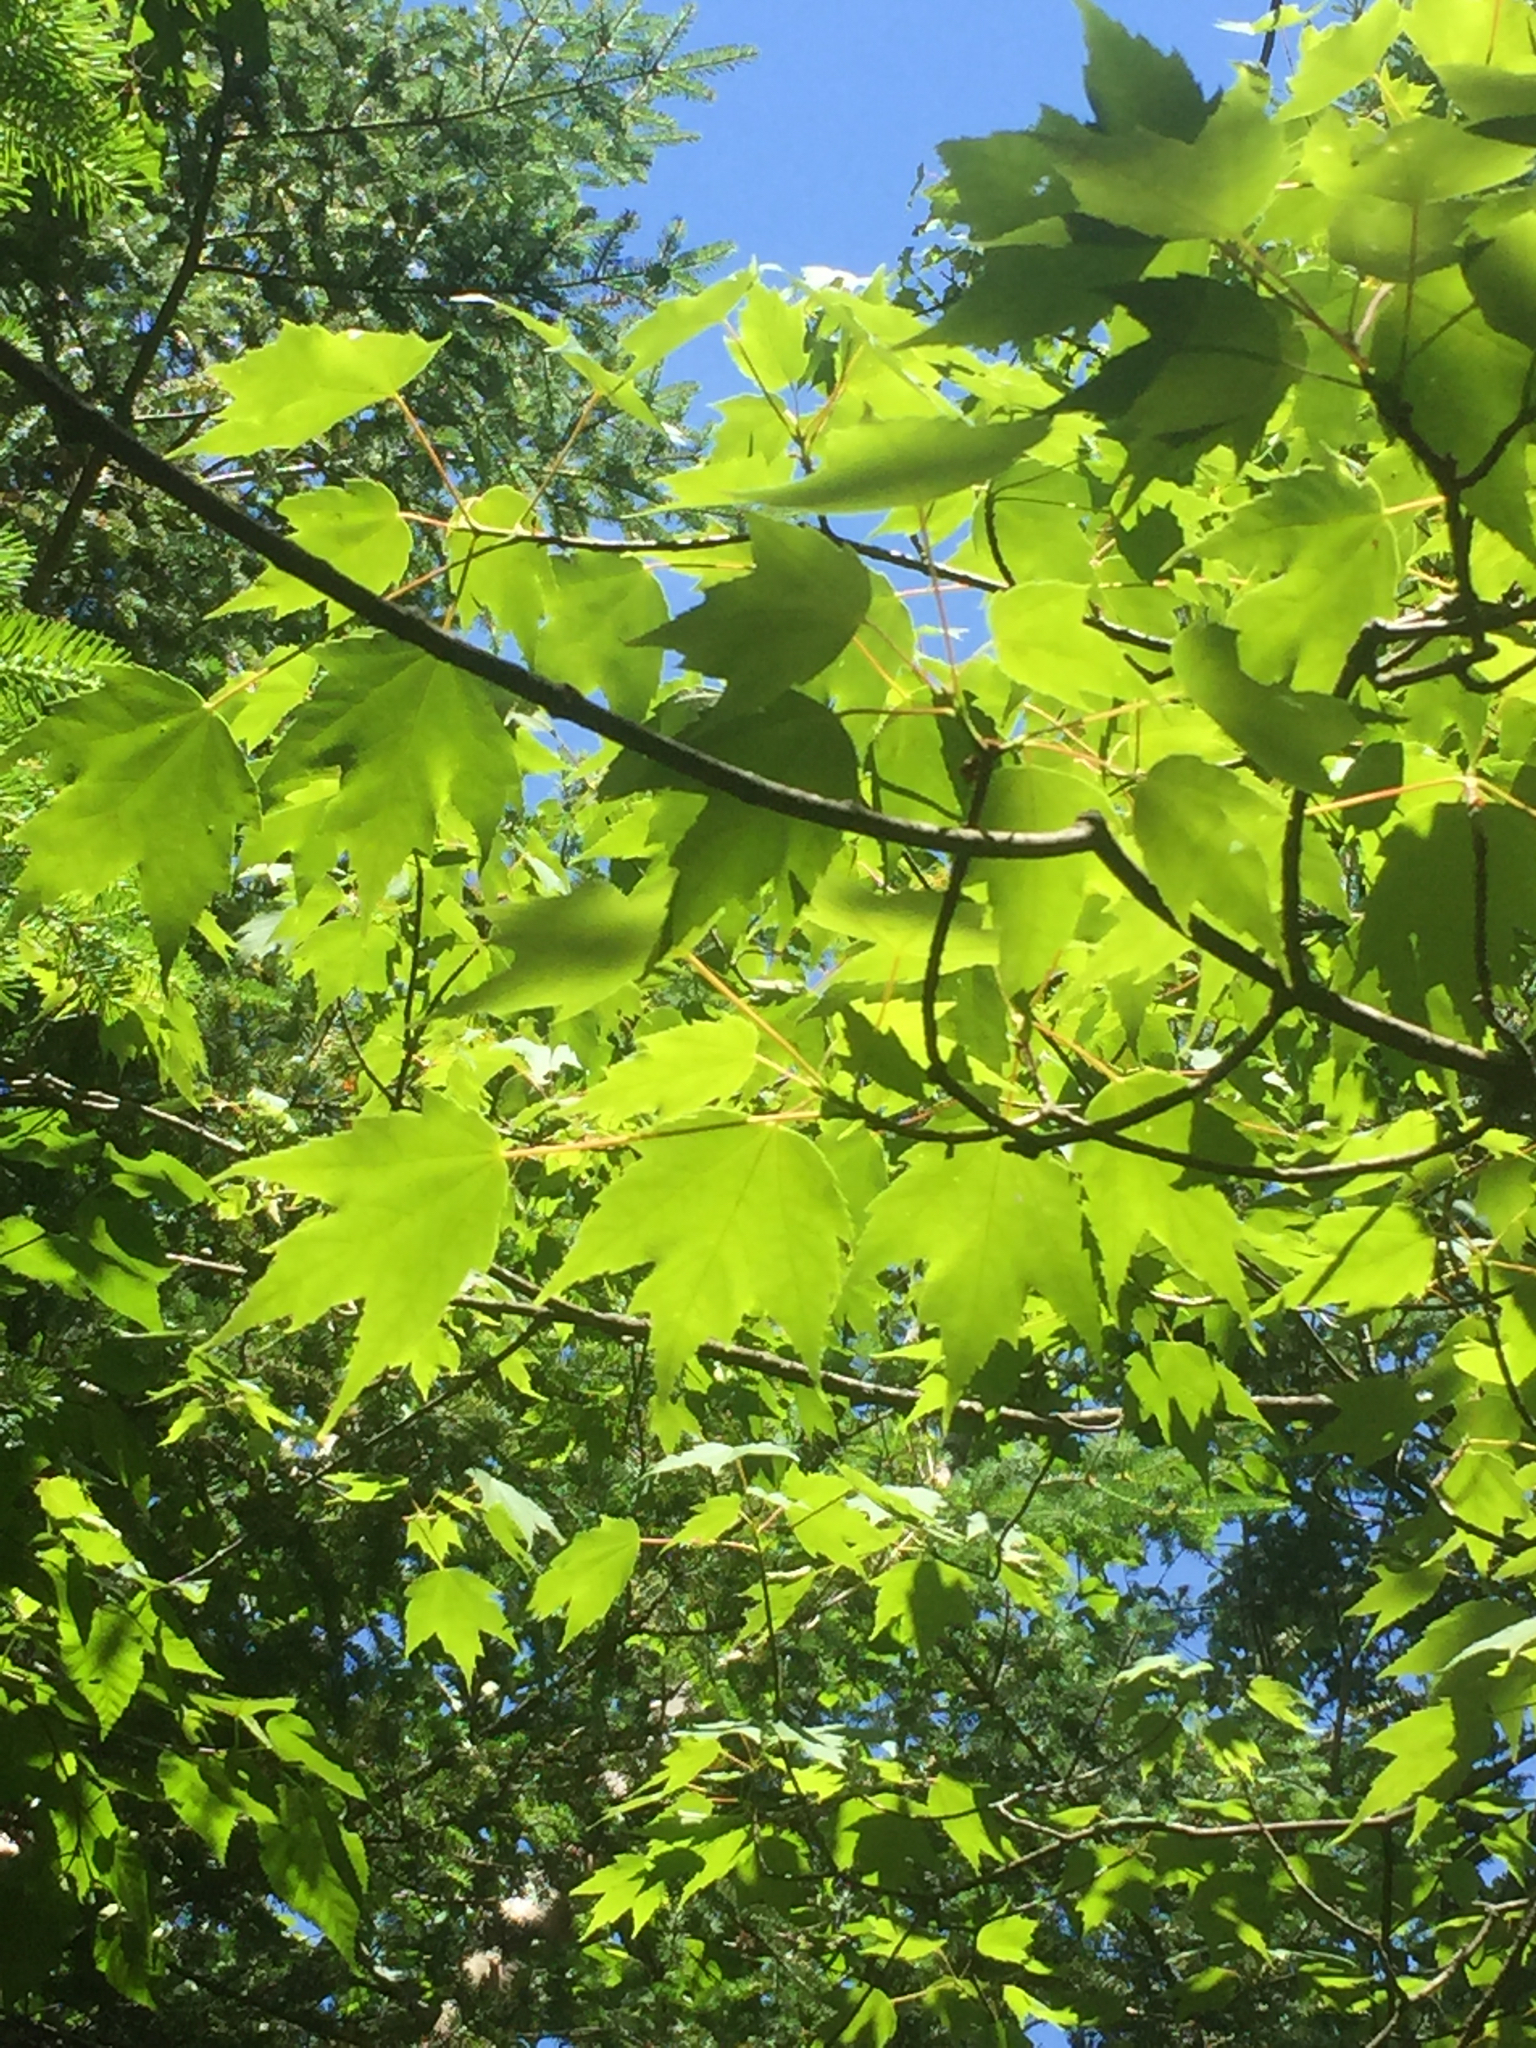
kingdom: Plantae
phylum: Tracheophyta
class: Magnoliopsida
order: Sapindales
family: Sapindaceae
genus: Acer
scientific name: Acer rubrum
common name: Red maple
